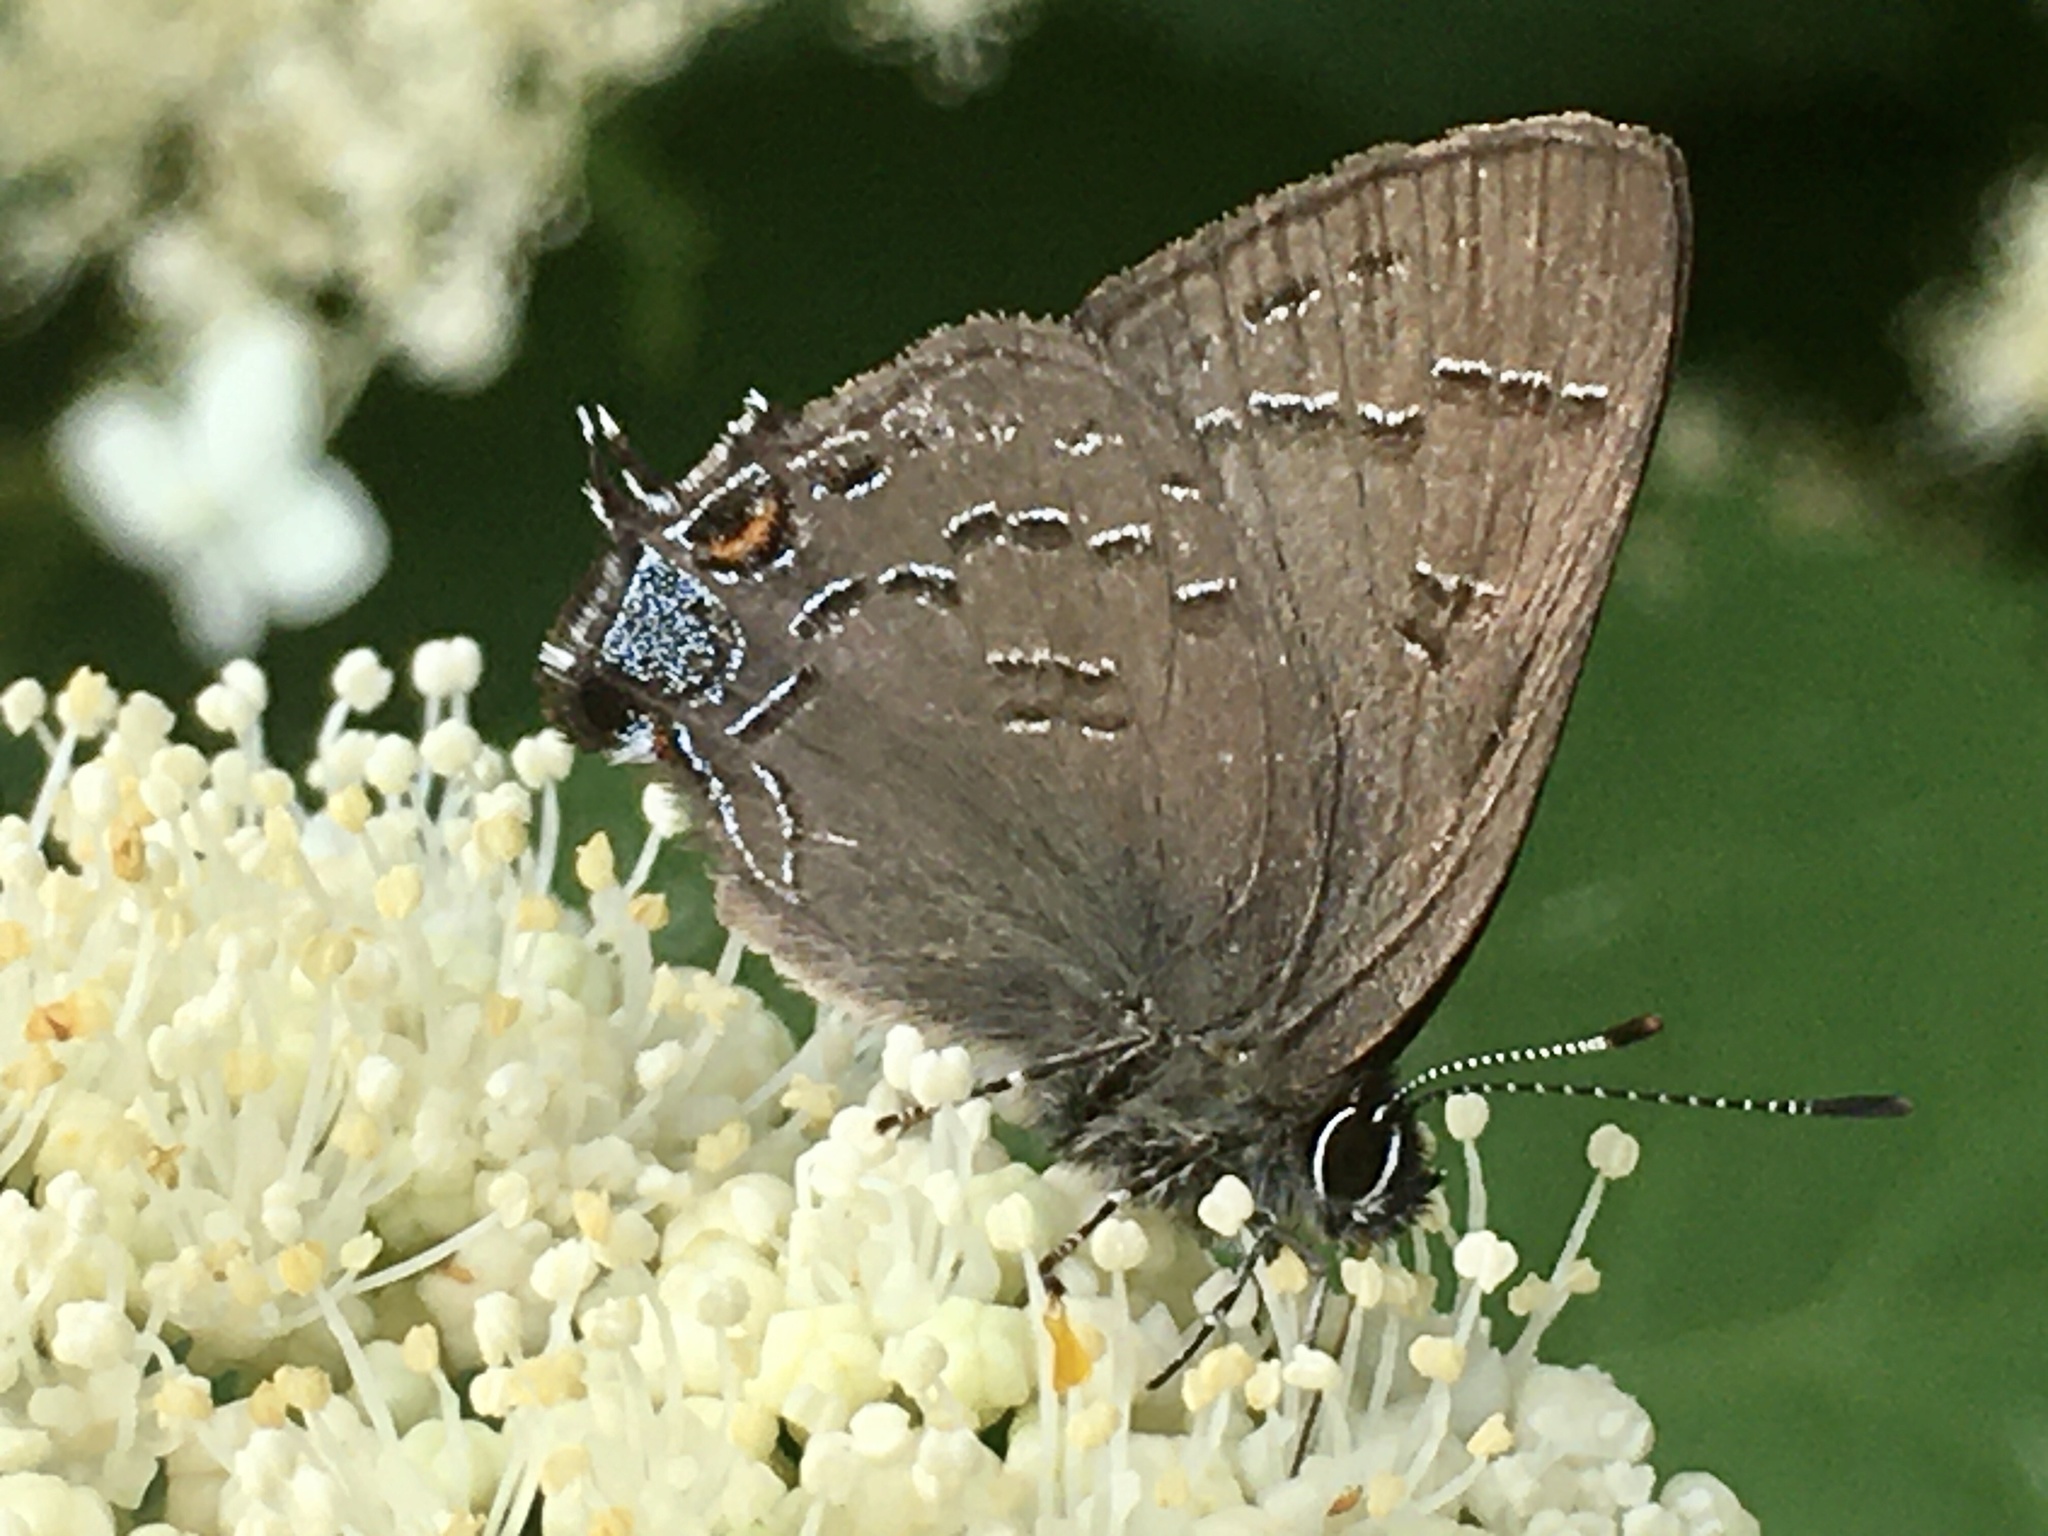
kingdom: Animalia
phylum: Arthropoda
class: Insecta
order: Lepidoptera
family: Lycaenidae
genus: Satyrium
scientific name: Satyrium calanus
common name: Banded hairstreak
